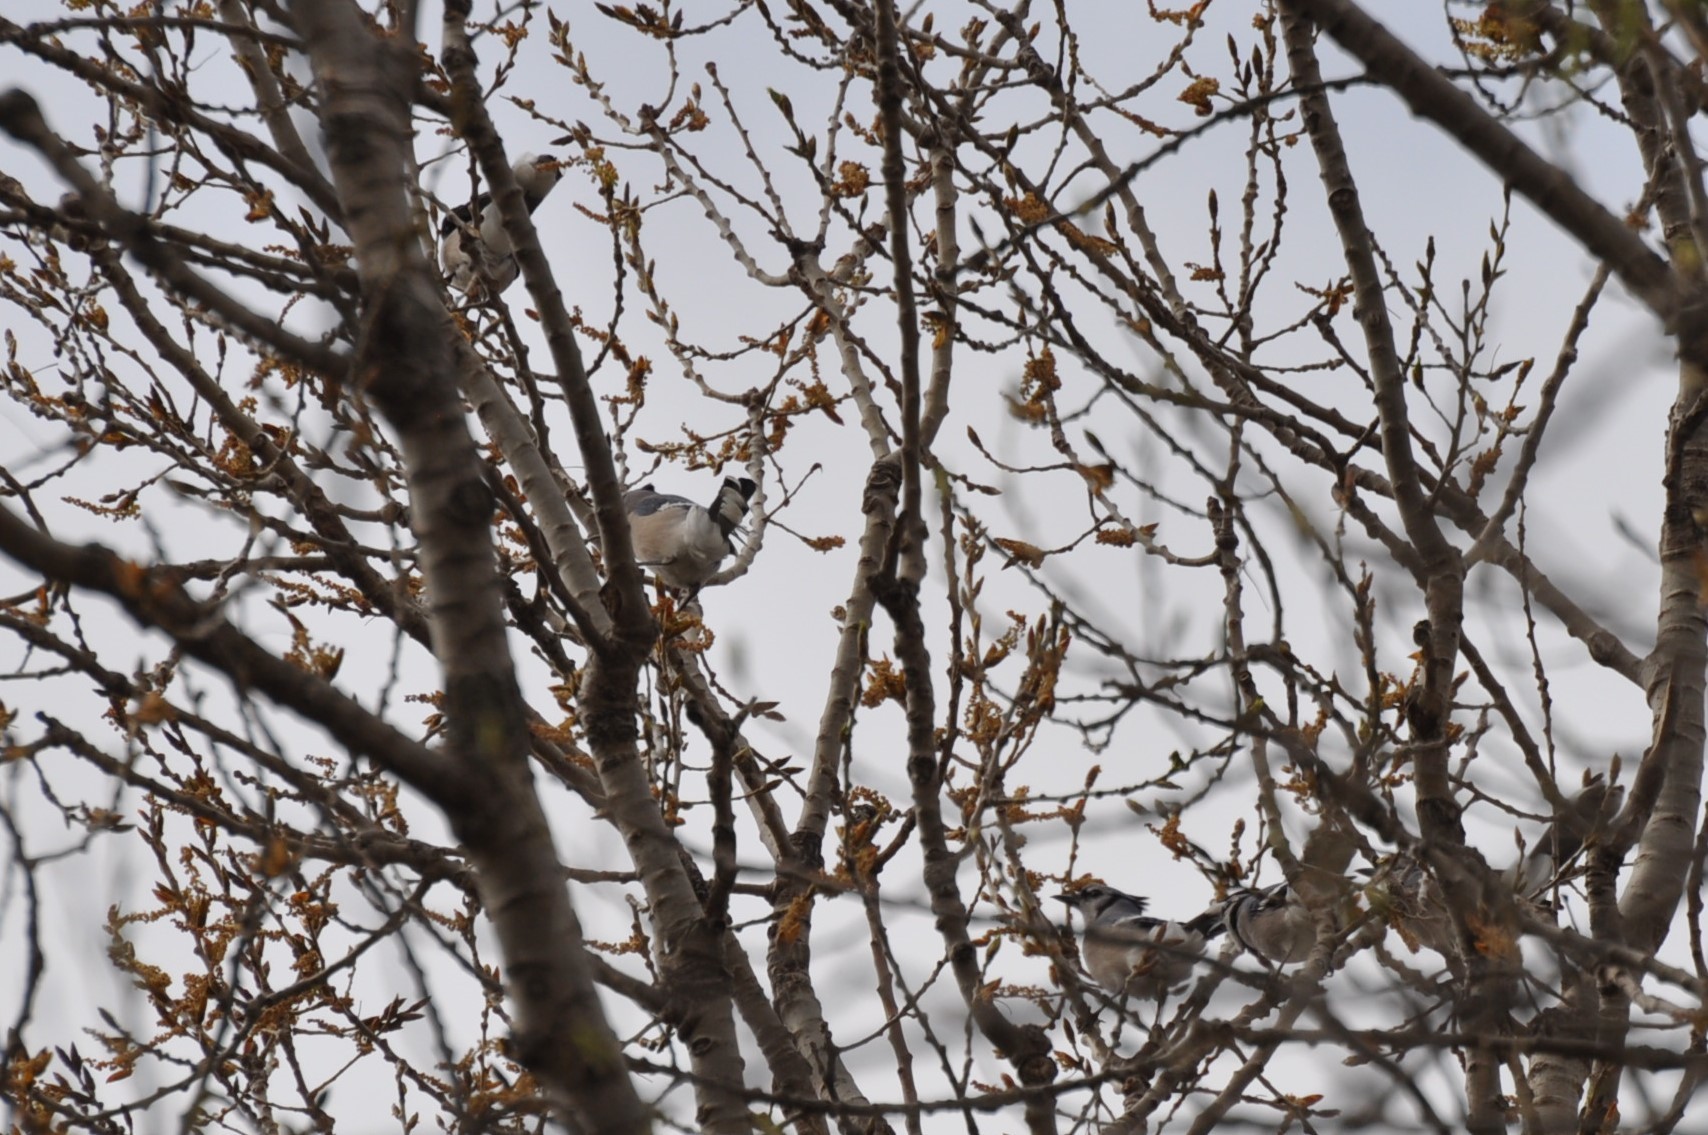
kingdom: Animalia
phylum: Chordata
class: Aves
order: Passeriformes
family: Corvidae
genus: Cyanocitta
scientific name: Cyanocitta cristata
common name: Blue jay
